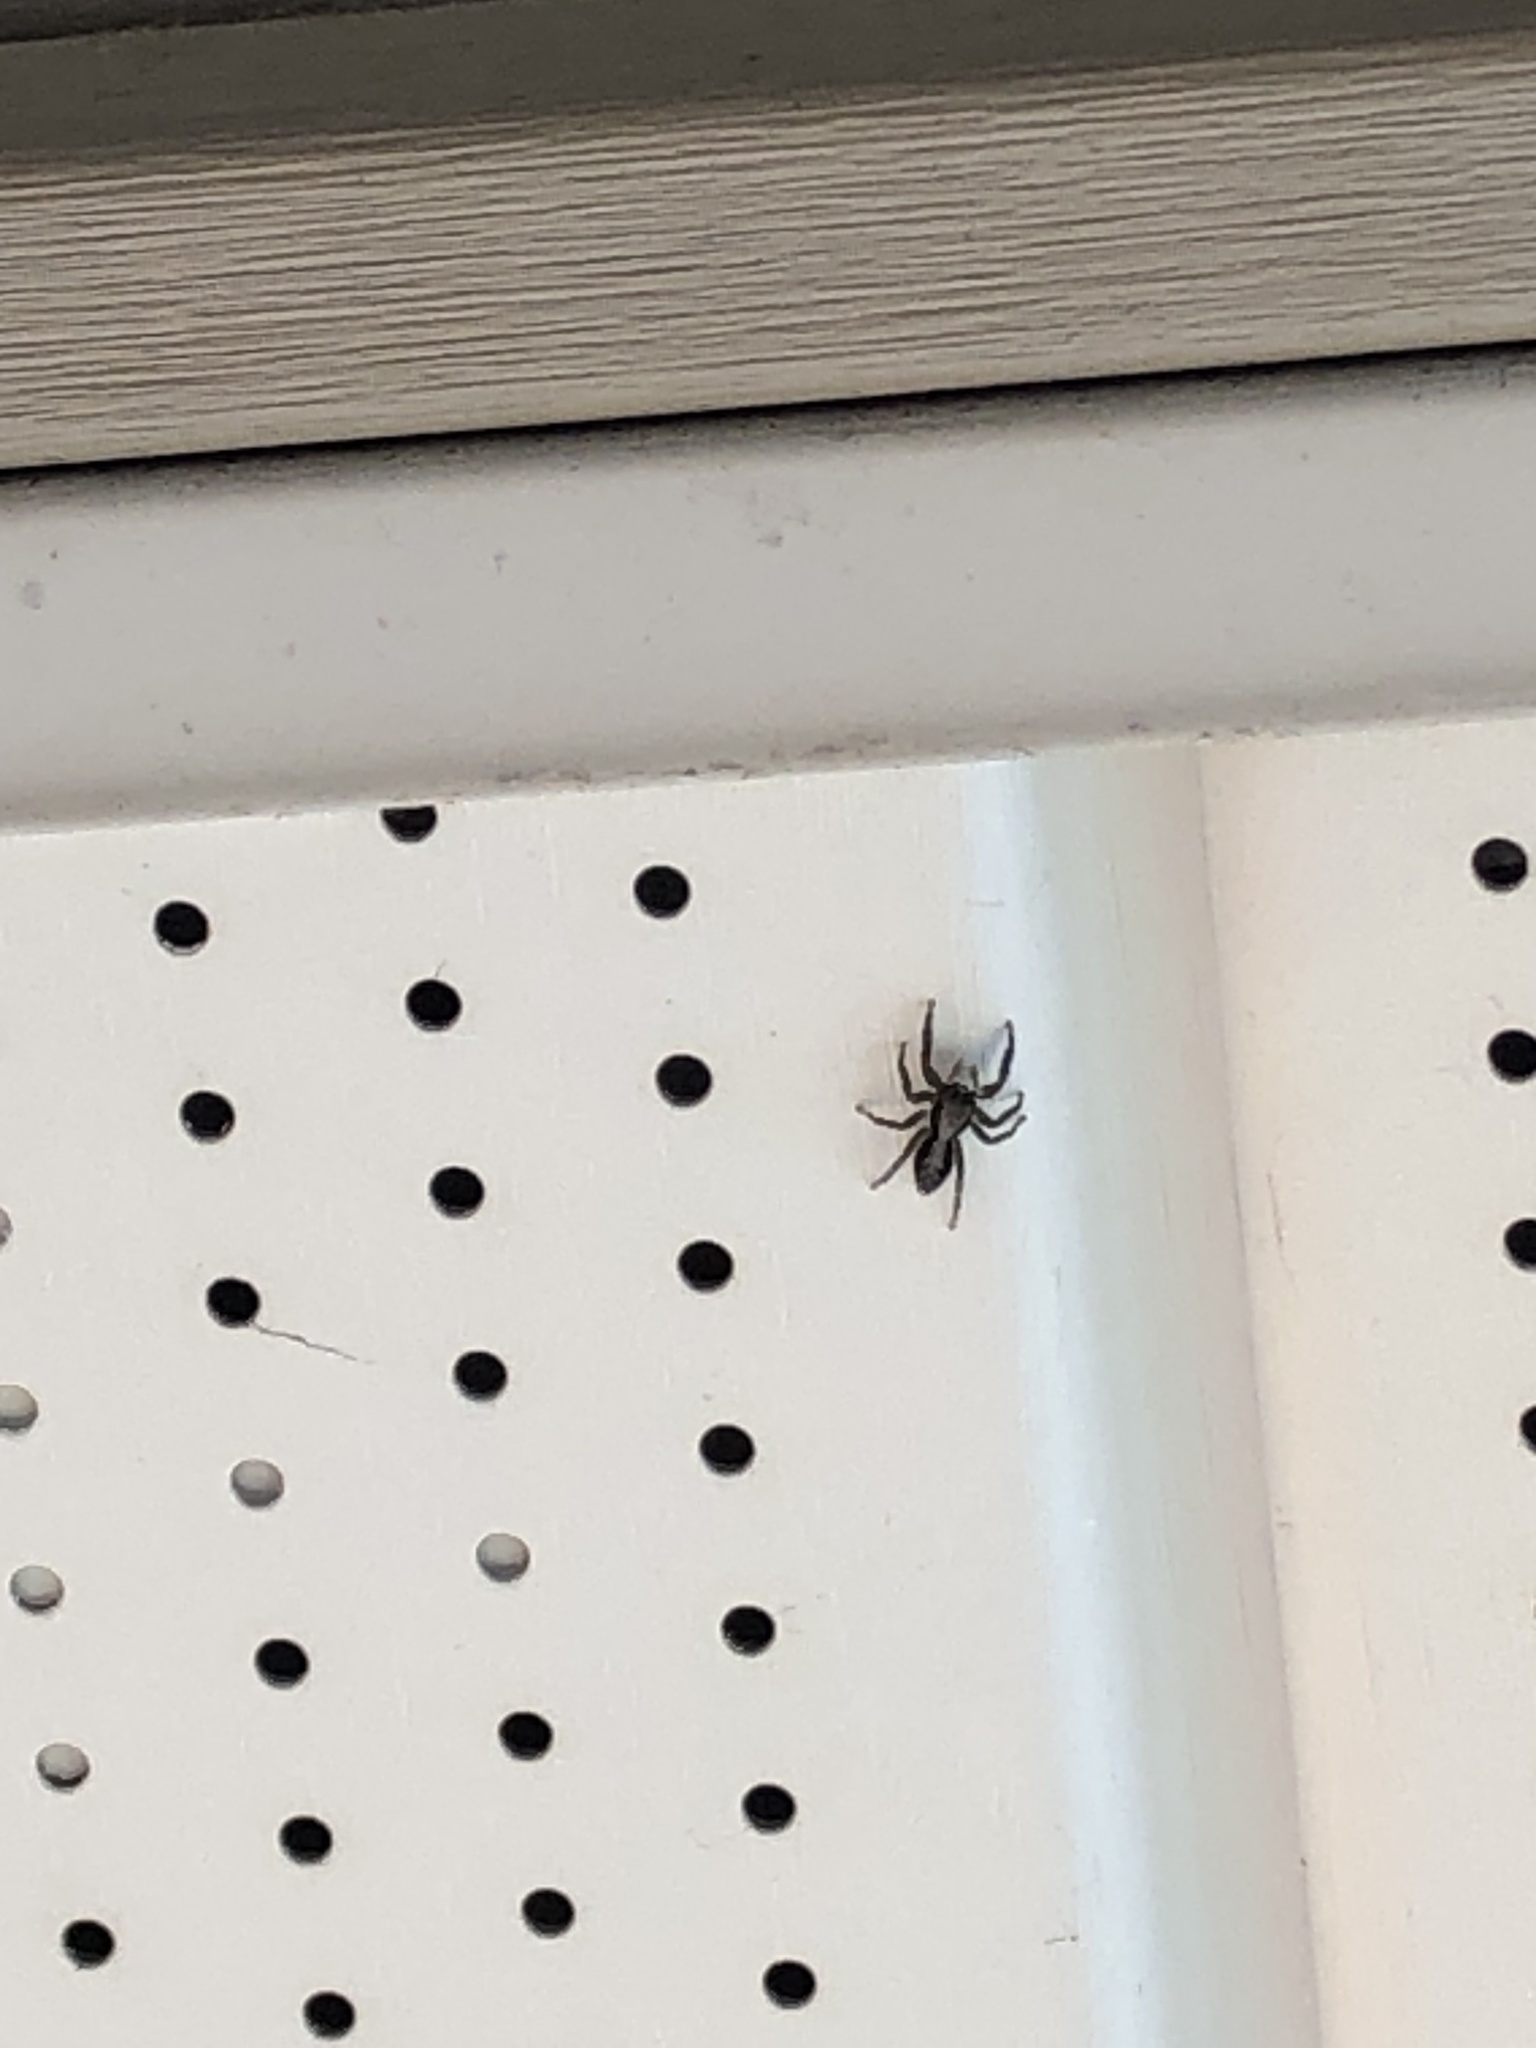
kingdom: Animalia
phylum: Arthropoda
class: Arachnida
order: Araneae
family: Salticidae
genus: Platycryptus
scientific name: Platycryptus californicus
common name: Jumping spiders
